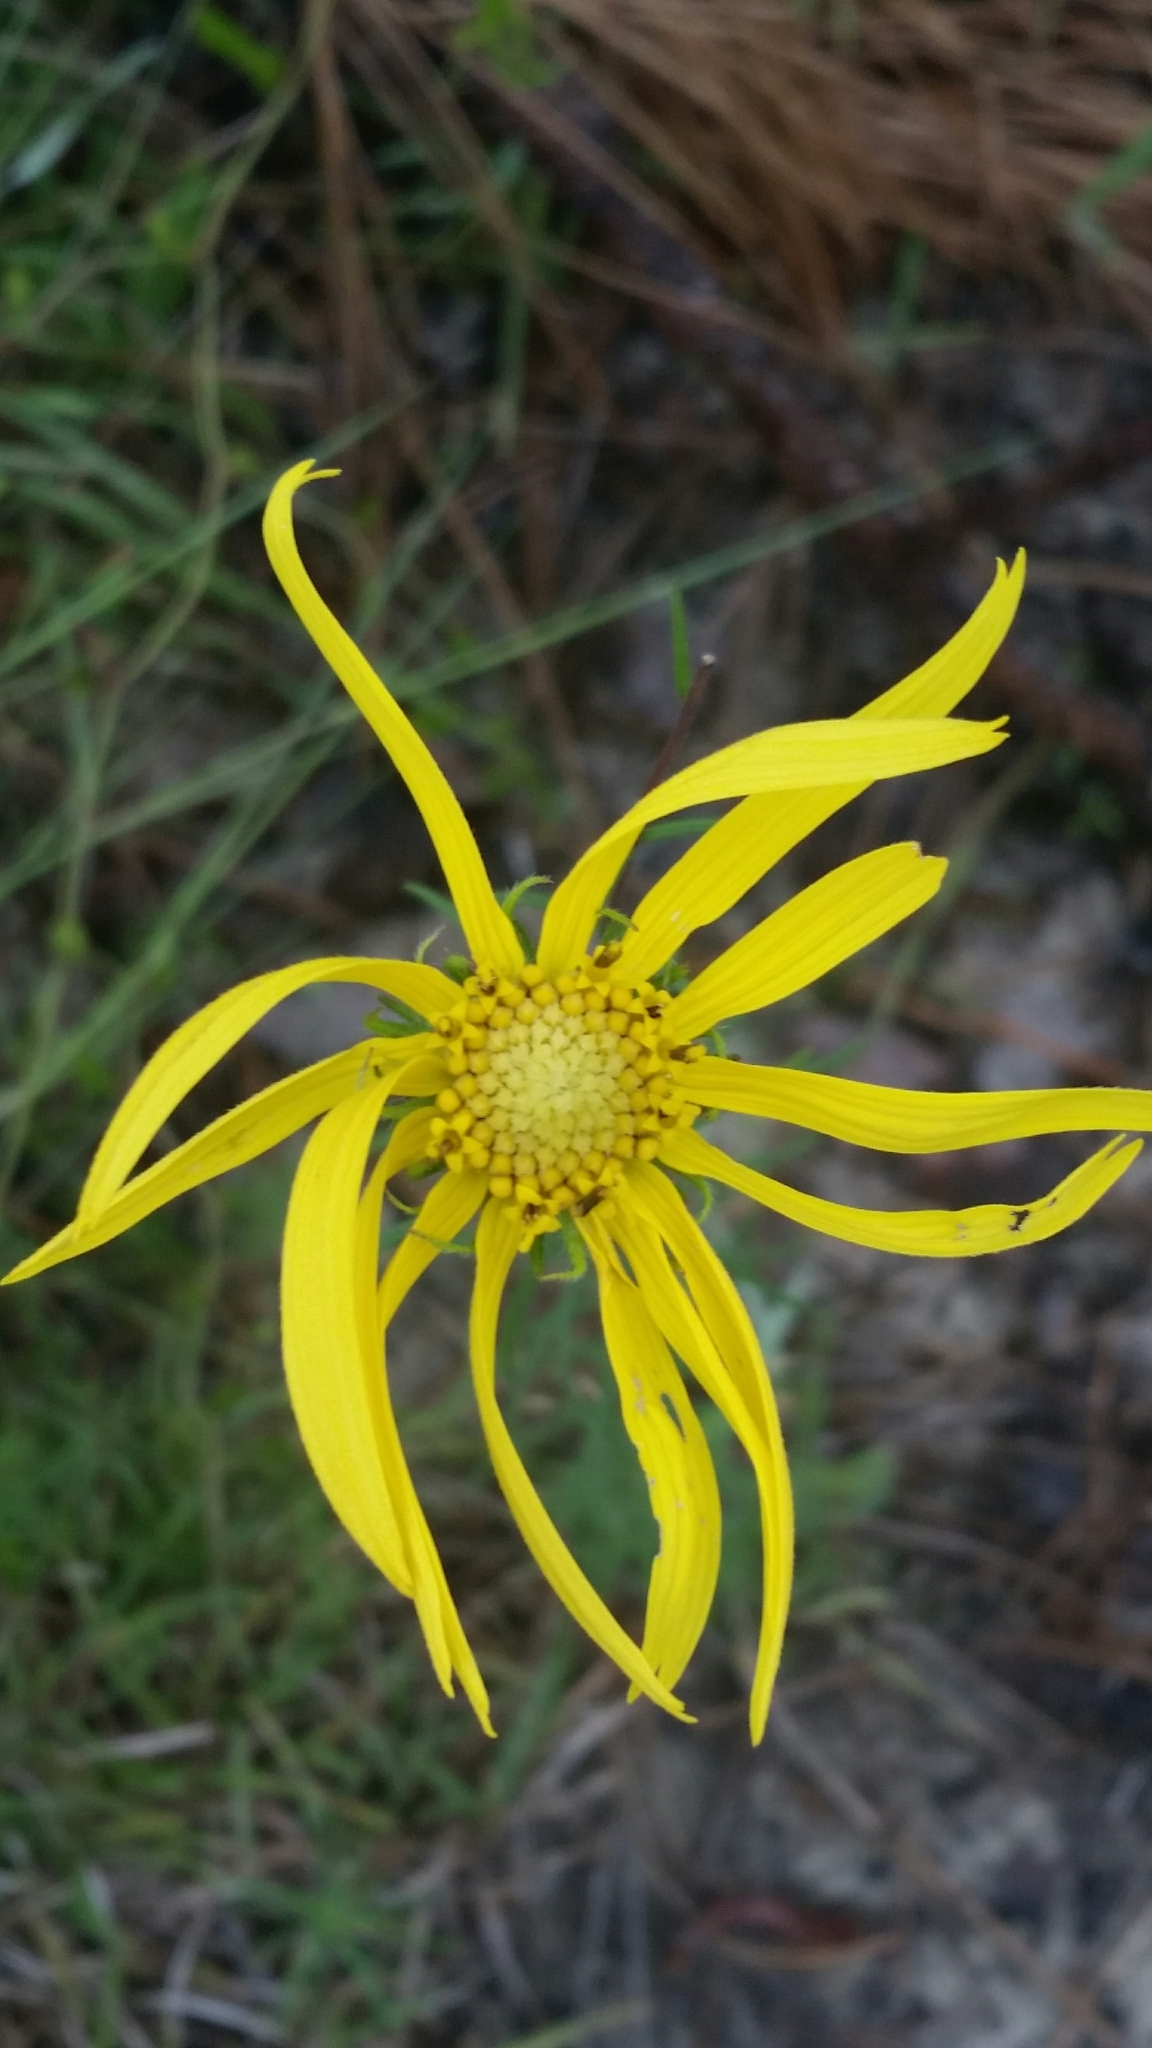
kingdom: Plantae
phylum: Tracheophyta
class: Magnoliopsida
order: Asterales
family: Asteraceae
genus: Phoebanthus
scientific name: Phoebanthus tenuifolia
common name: Pineland false sunflower
